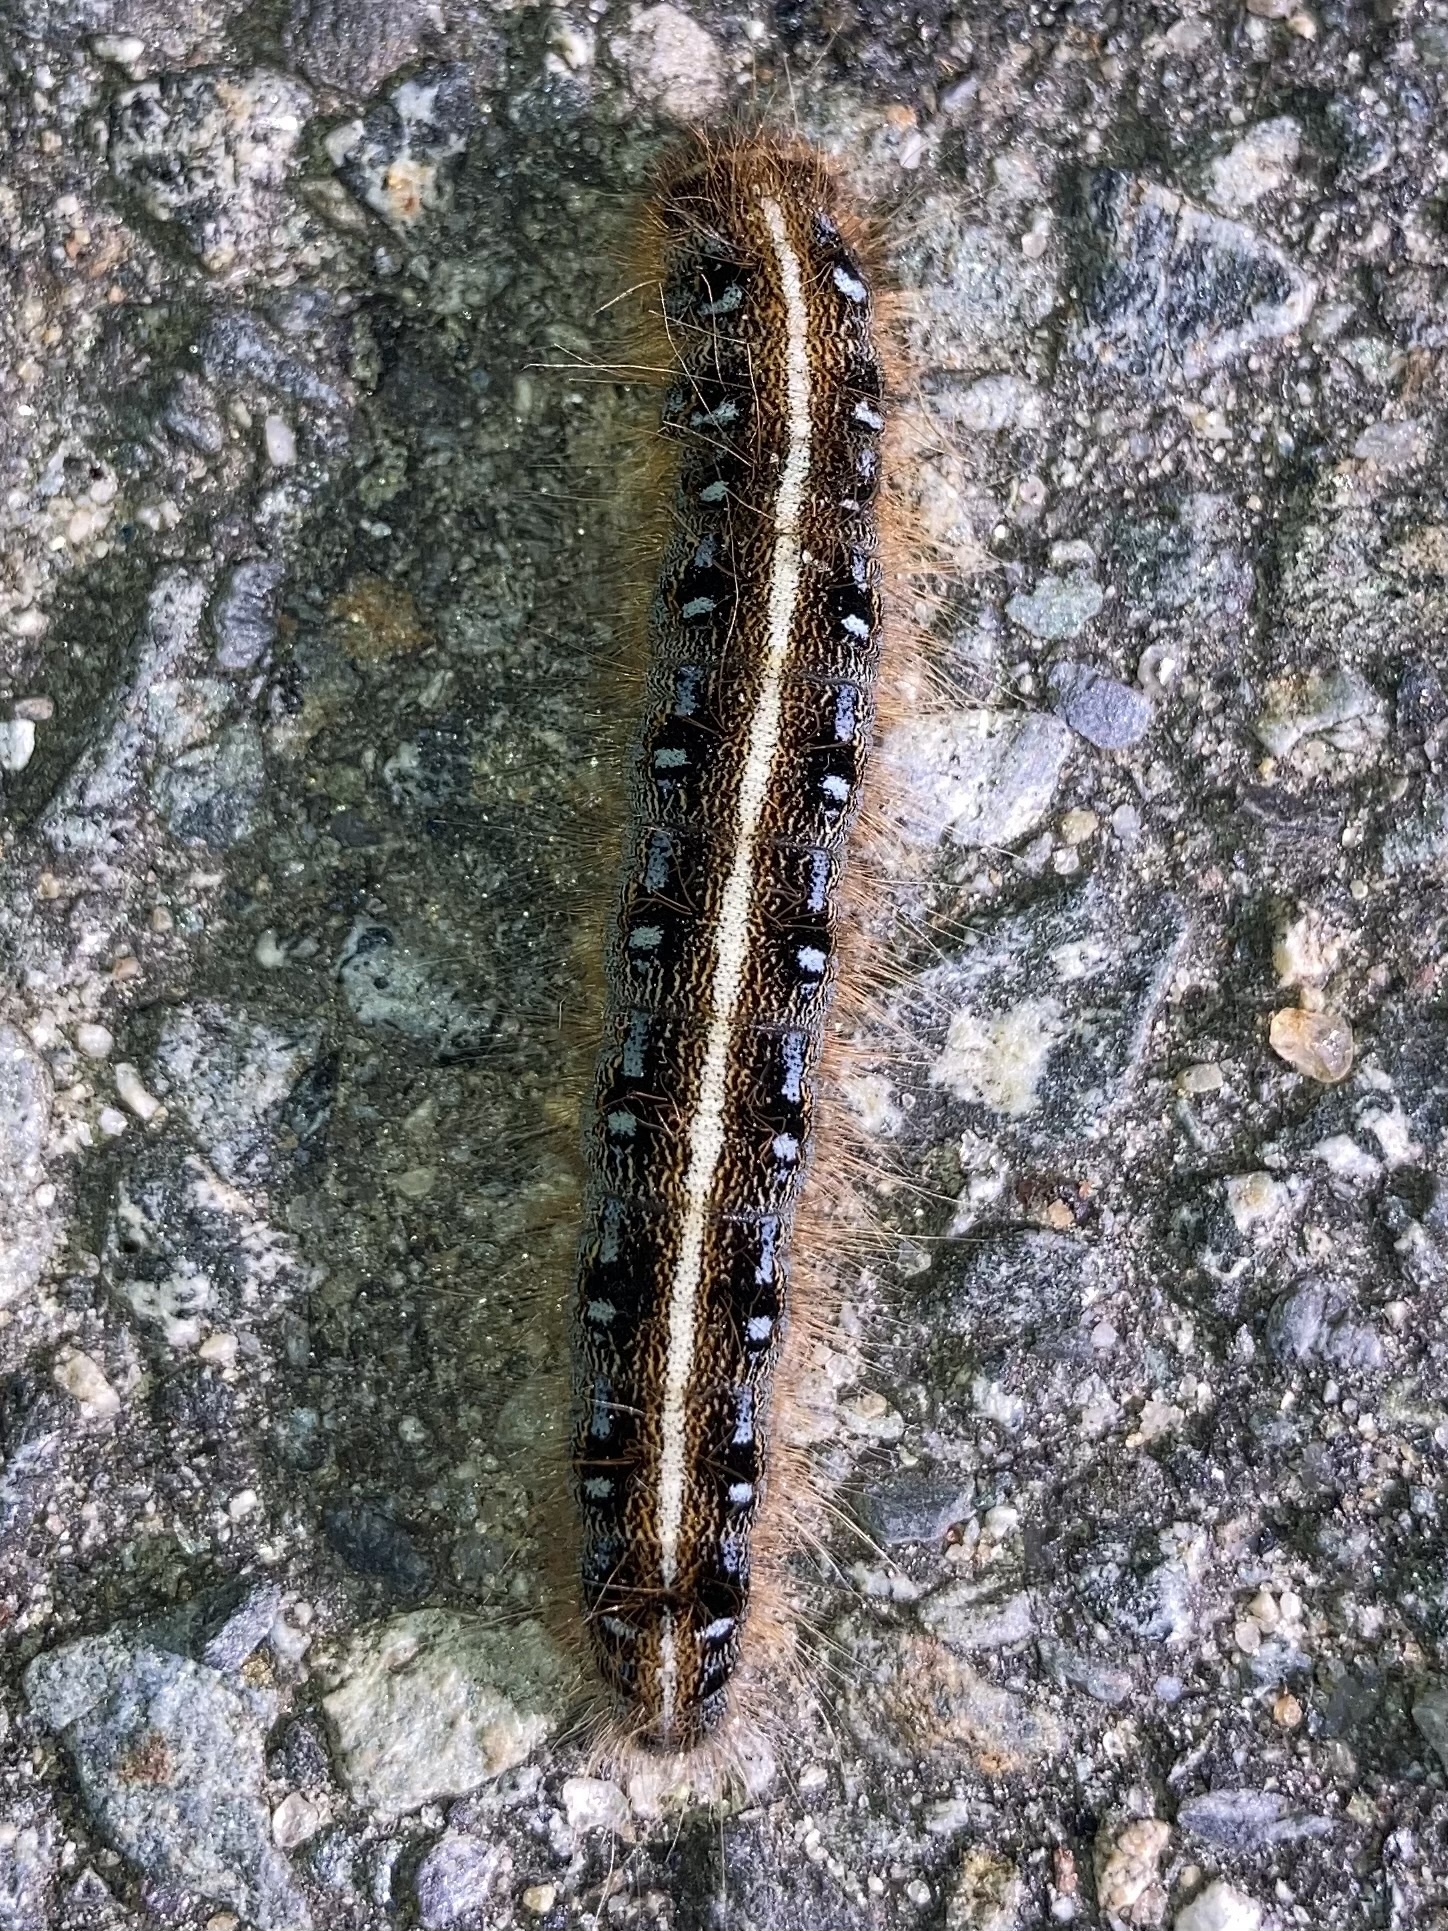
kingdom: Animalia
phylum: Arthropoda
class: Insecta
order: Lepidoptera
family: Lasiocampidae
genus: Malacosoma
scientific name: Malacosoma americana
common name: Eastern tent caterpillar moth
